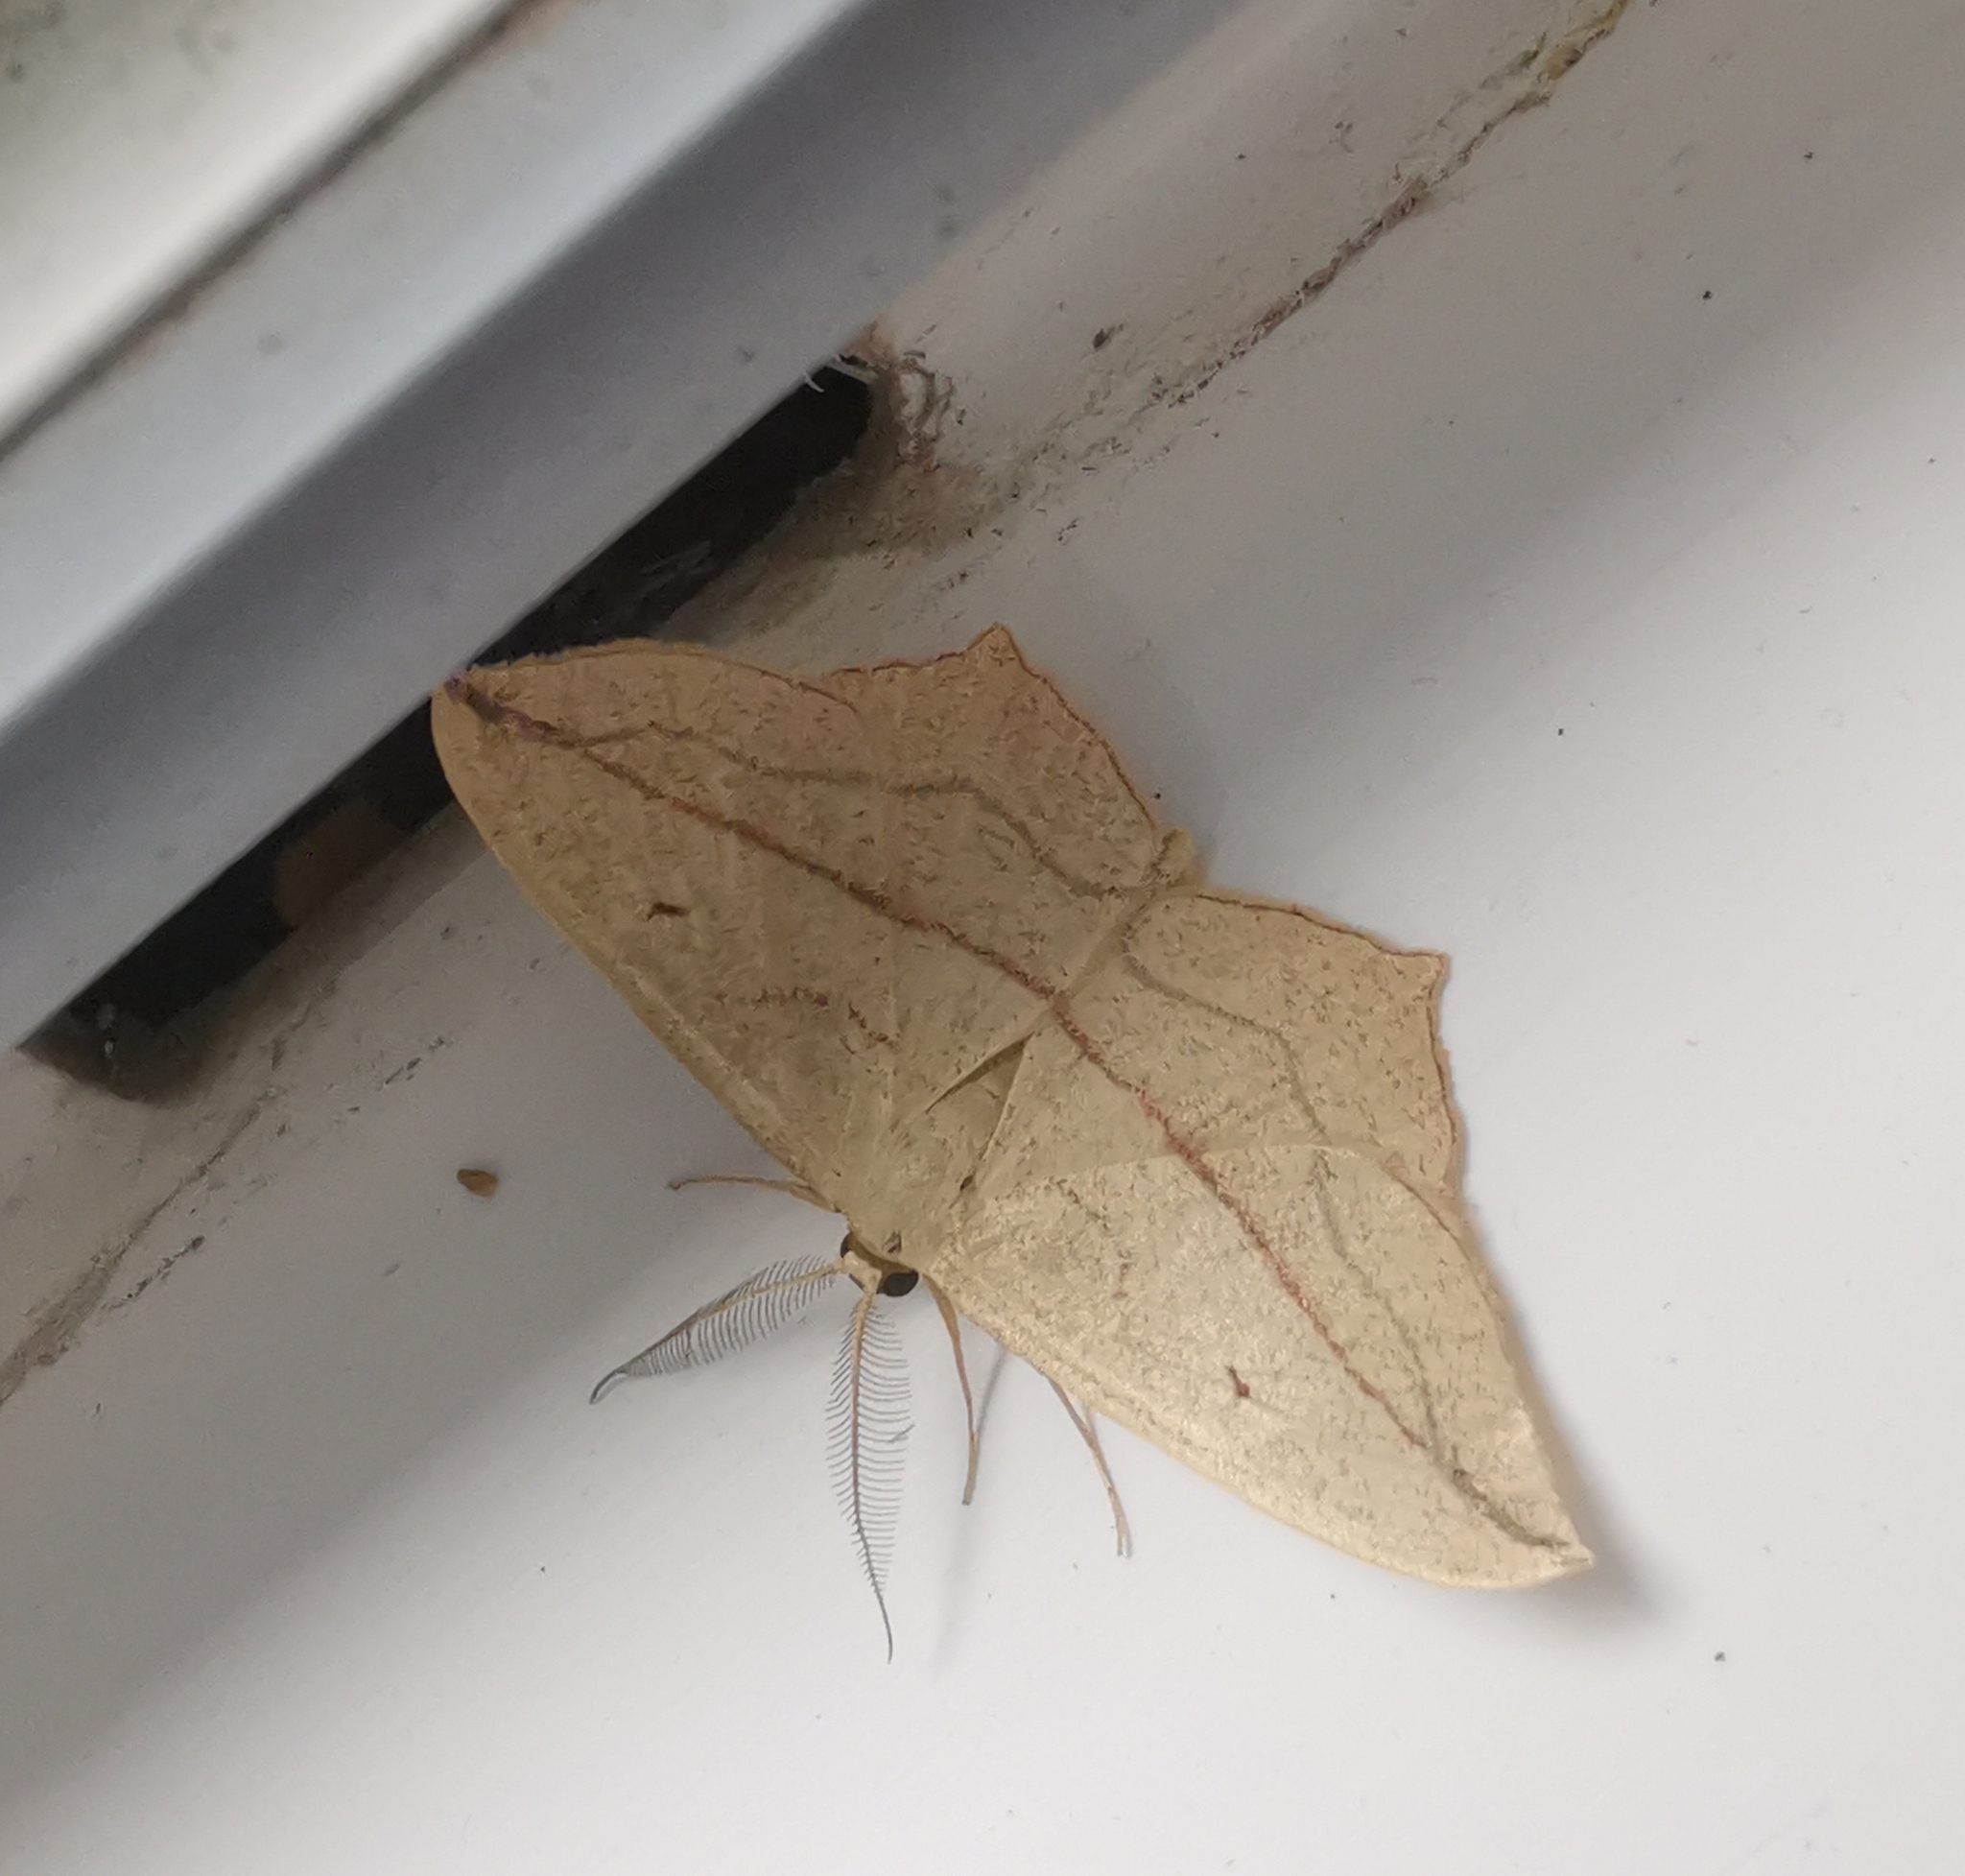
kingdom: Animalia
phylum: Arthropoda
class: Insecta
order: Lepidoptera
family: Geometridae
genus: Timandra
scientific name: Timandra comae
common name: Blood-vein
